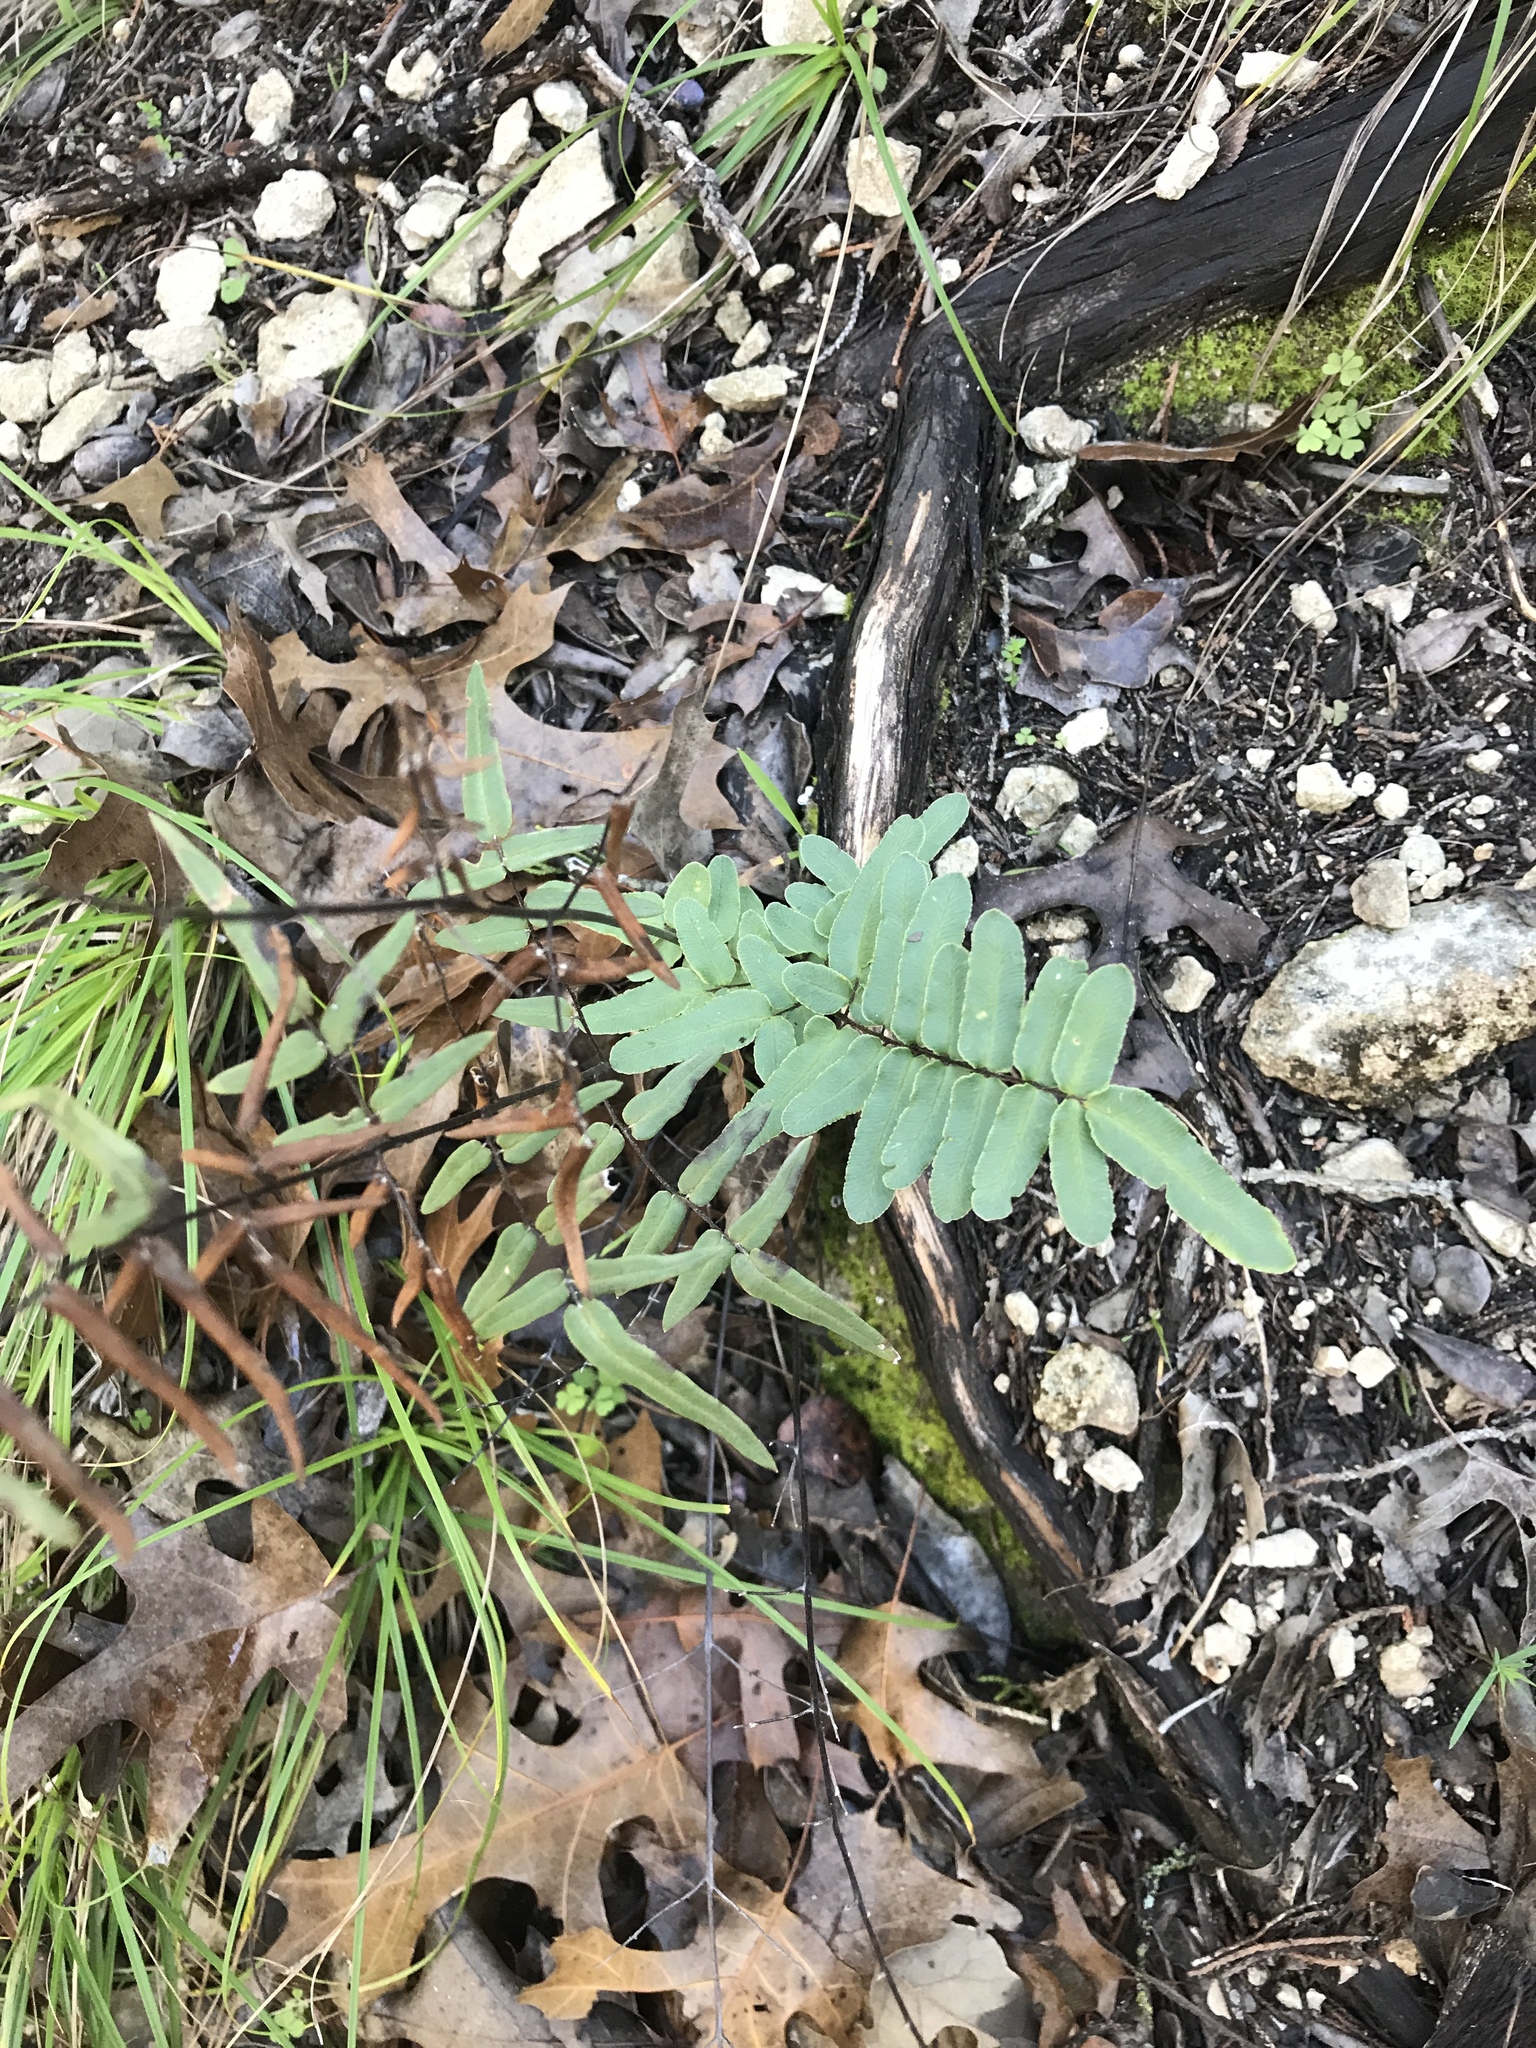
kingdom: Plantae
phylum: Tracheophyta
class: Polypodiopsida
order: Polypodiales
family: Pteridaceae
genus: Pellaea
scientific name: Pellaea atropurpurea
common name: Hairy cliffbrake
